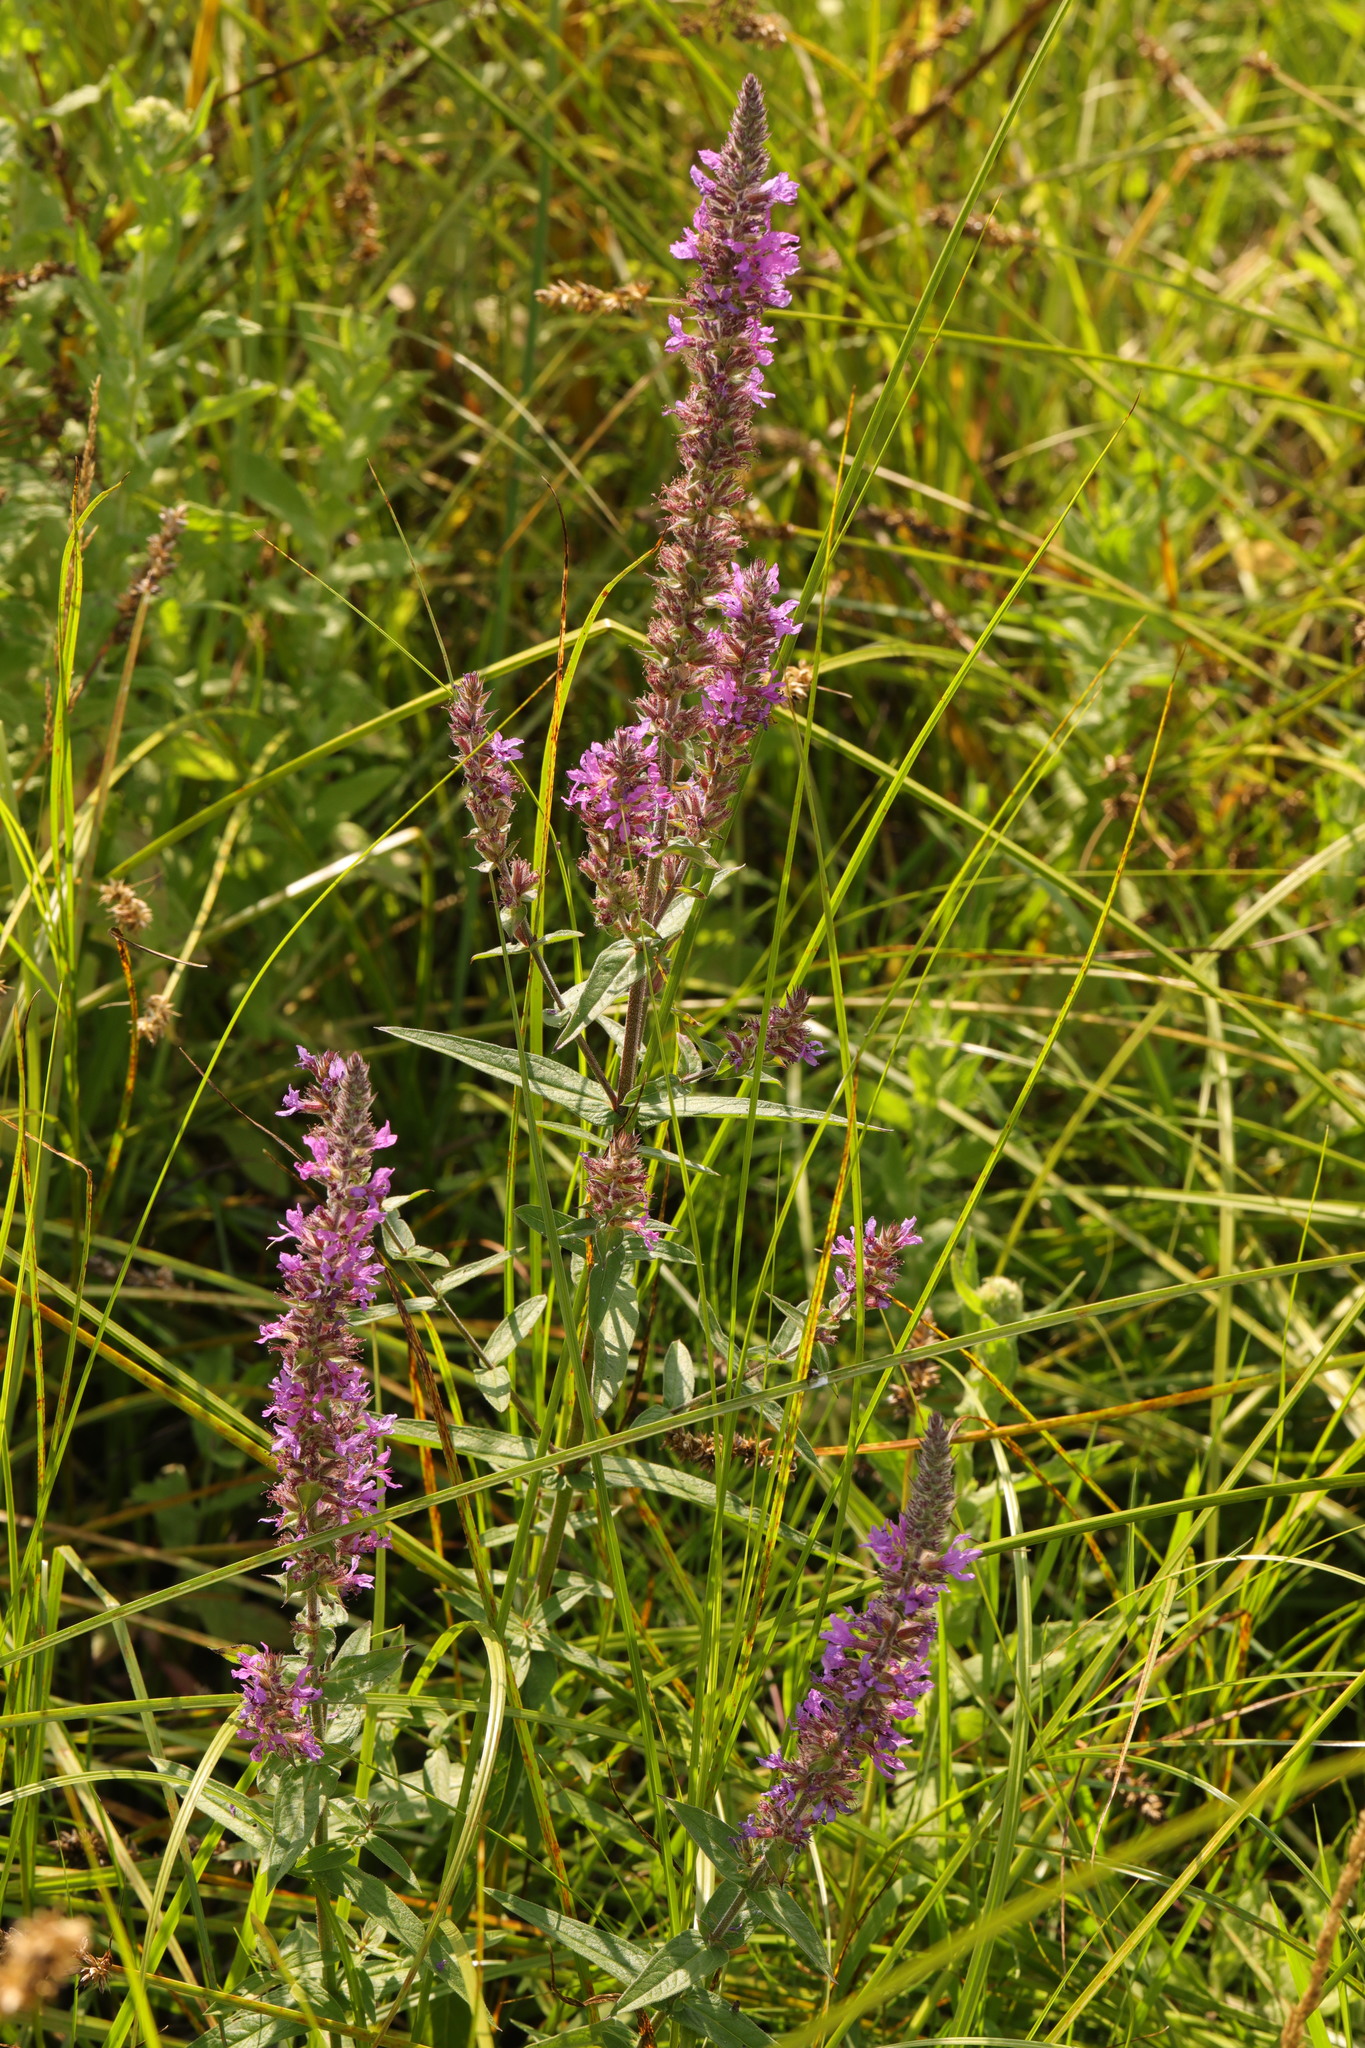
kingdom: Plantae
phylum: Tracheophyta
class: Magnoliopsida
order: Myrtales
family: Lythraceae
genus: Lythrum
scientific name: Lythrum salicaria
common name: Purple loosestrife
